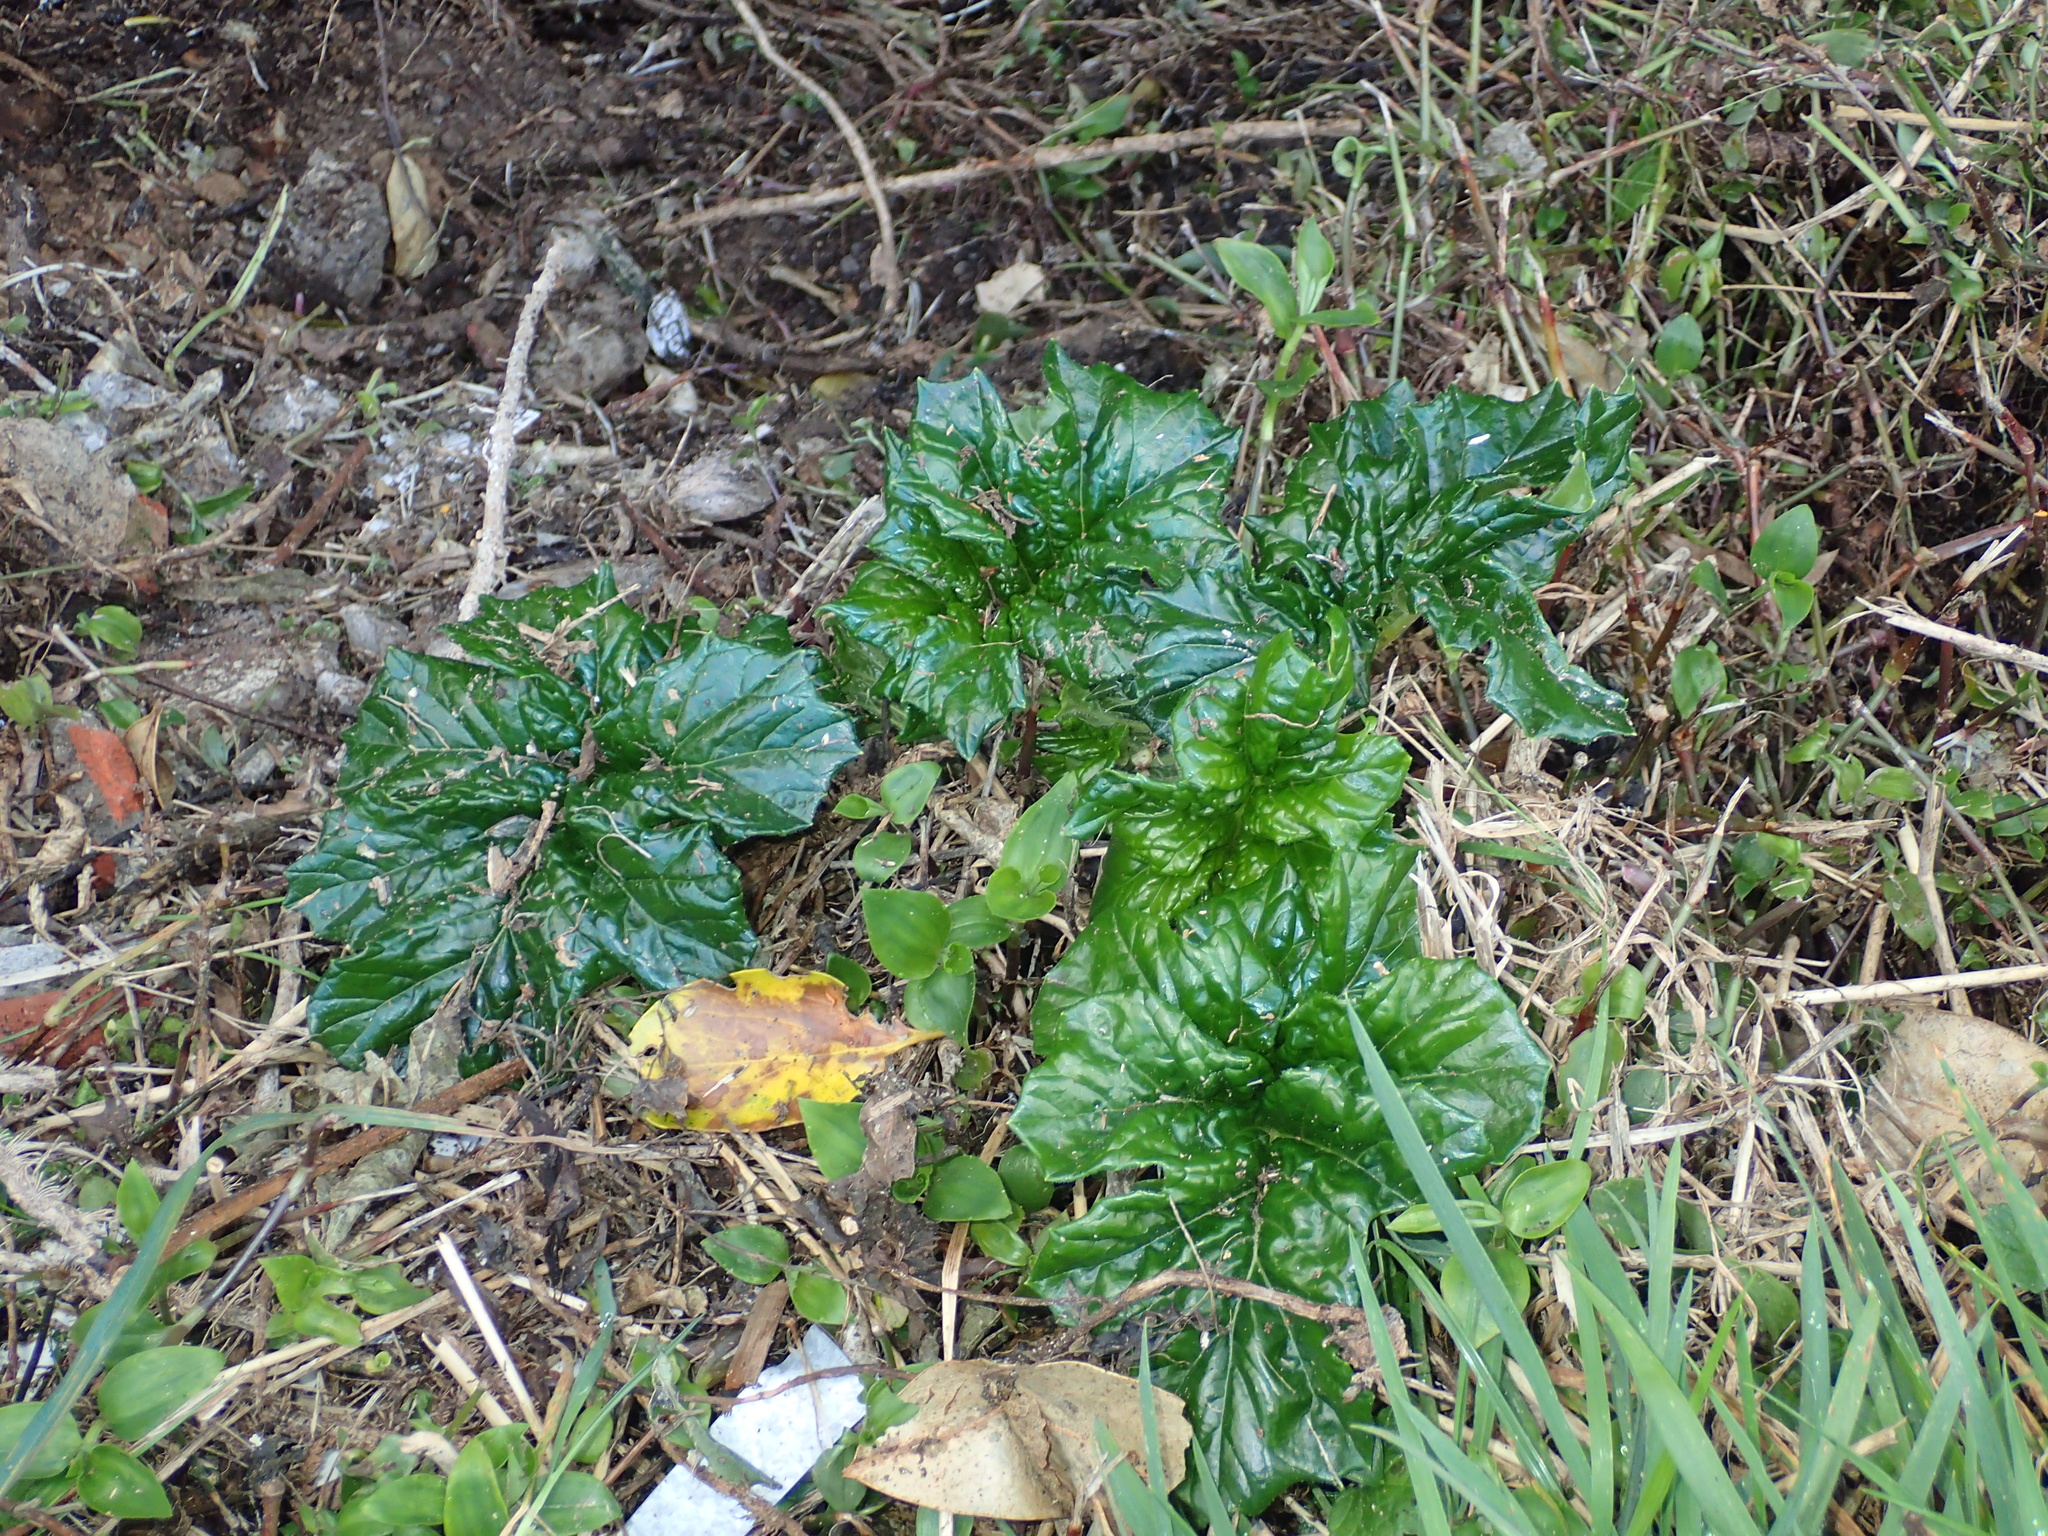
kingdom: Plantae
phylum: Tracheophyta
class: Magnoliopsida
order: Lamiales
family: Acanthaceae
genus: Acanthus
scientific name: Acanthus mollis
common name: Bear's-breech
